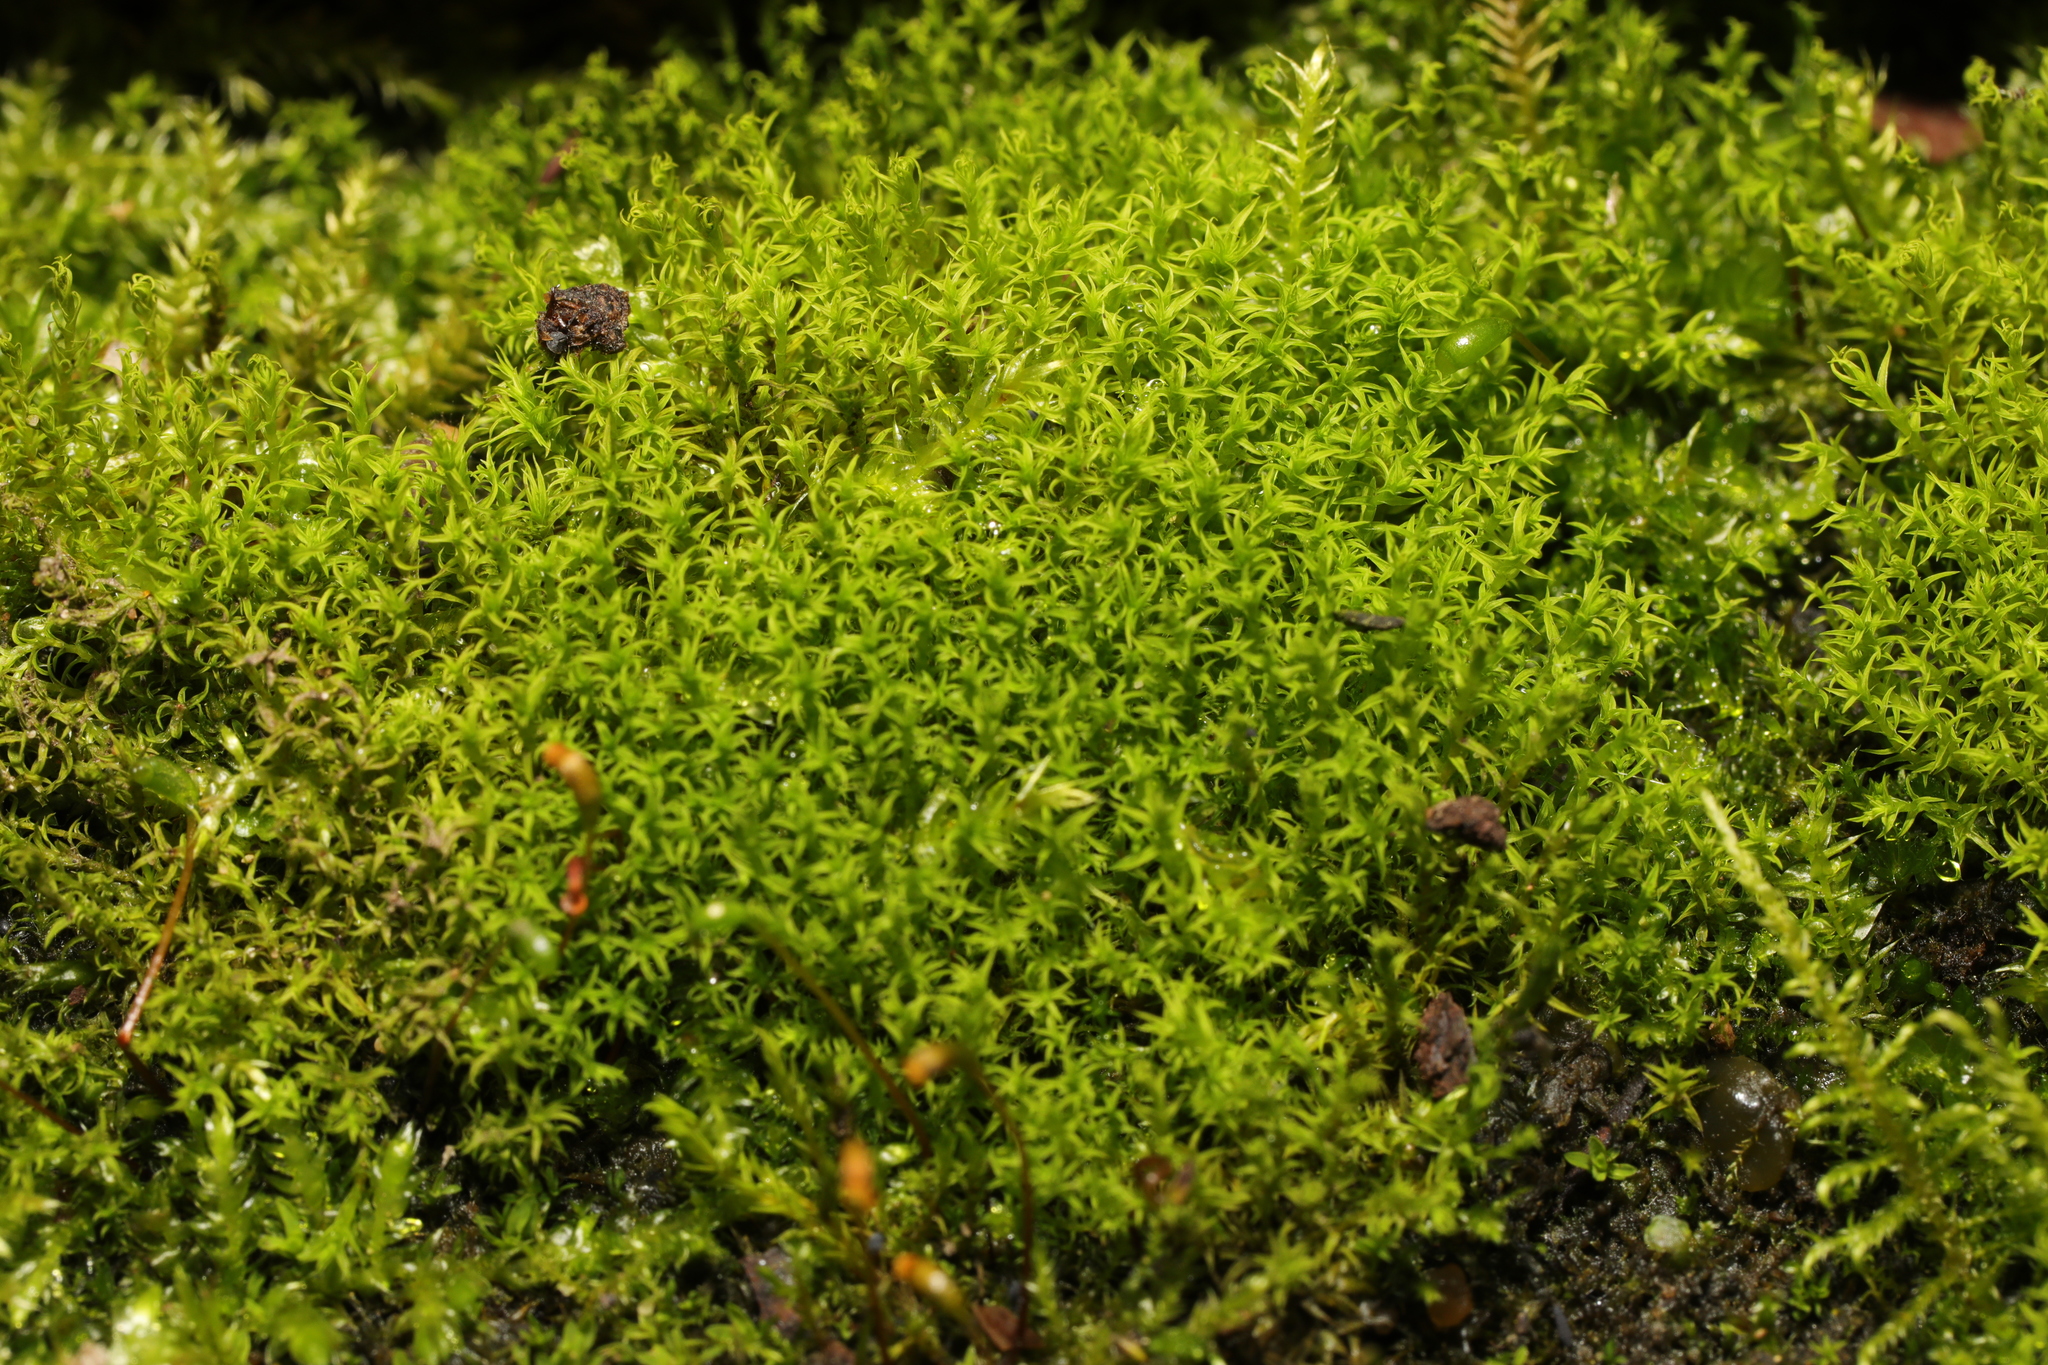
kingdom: Plantae
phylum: Bryophyta
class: Bryopsida
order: Pottiales
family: Pottiaceae
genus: Vinealobryum
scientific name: Vinealobryum insulanum
